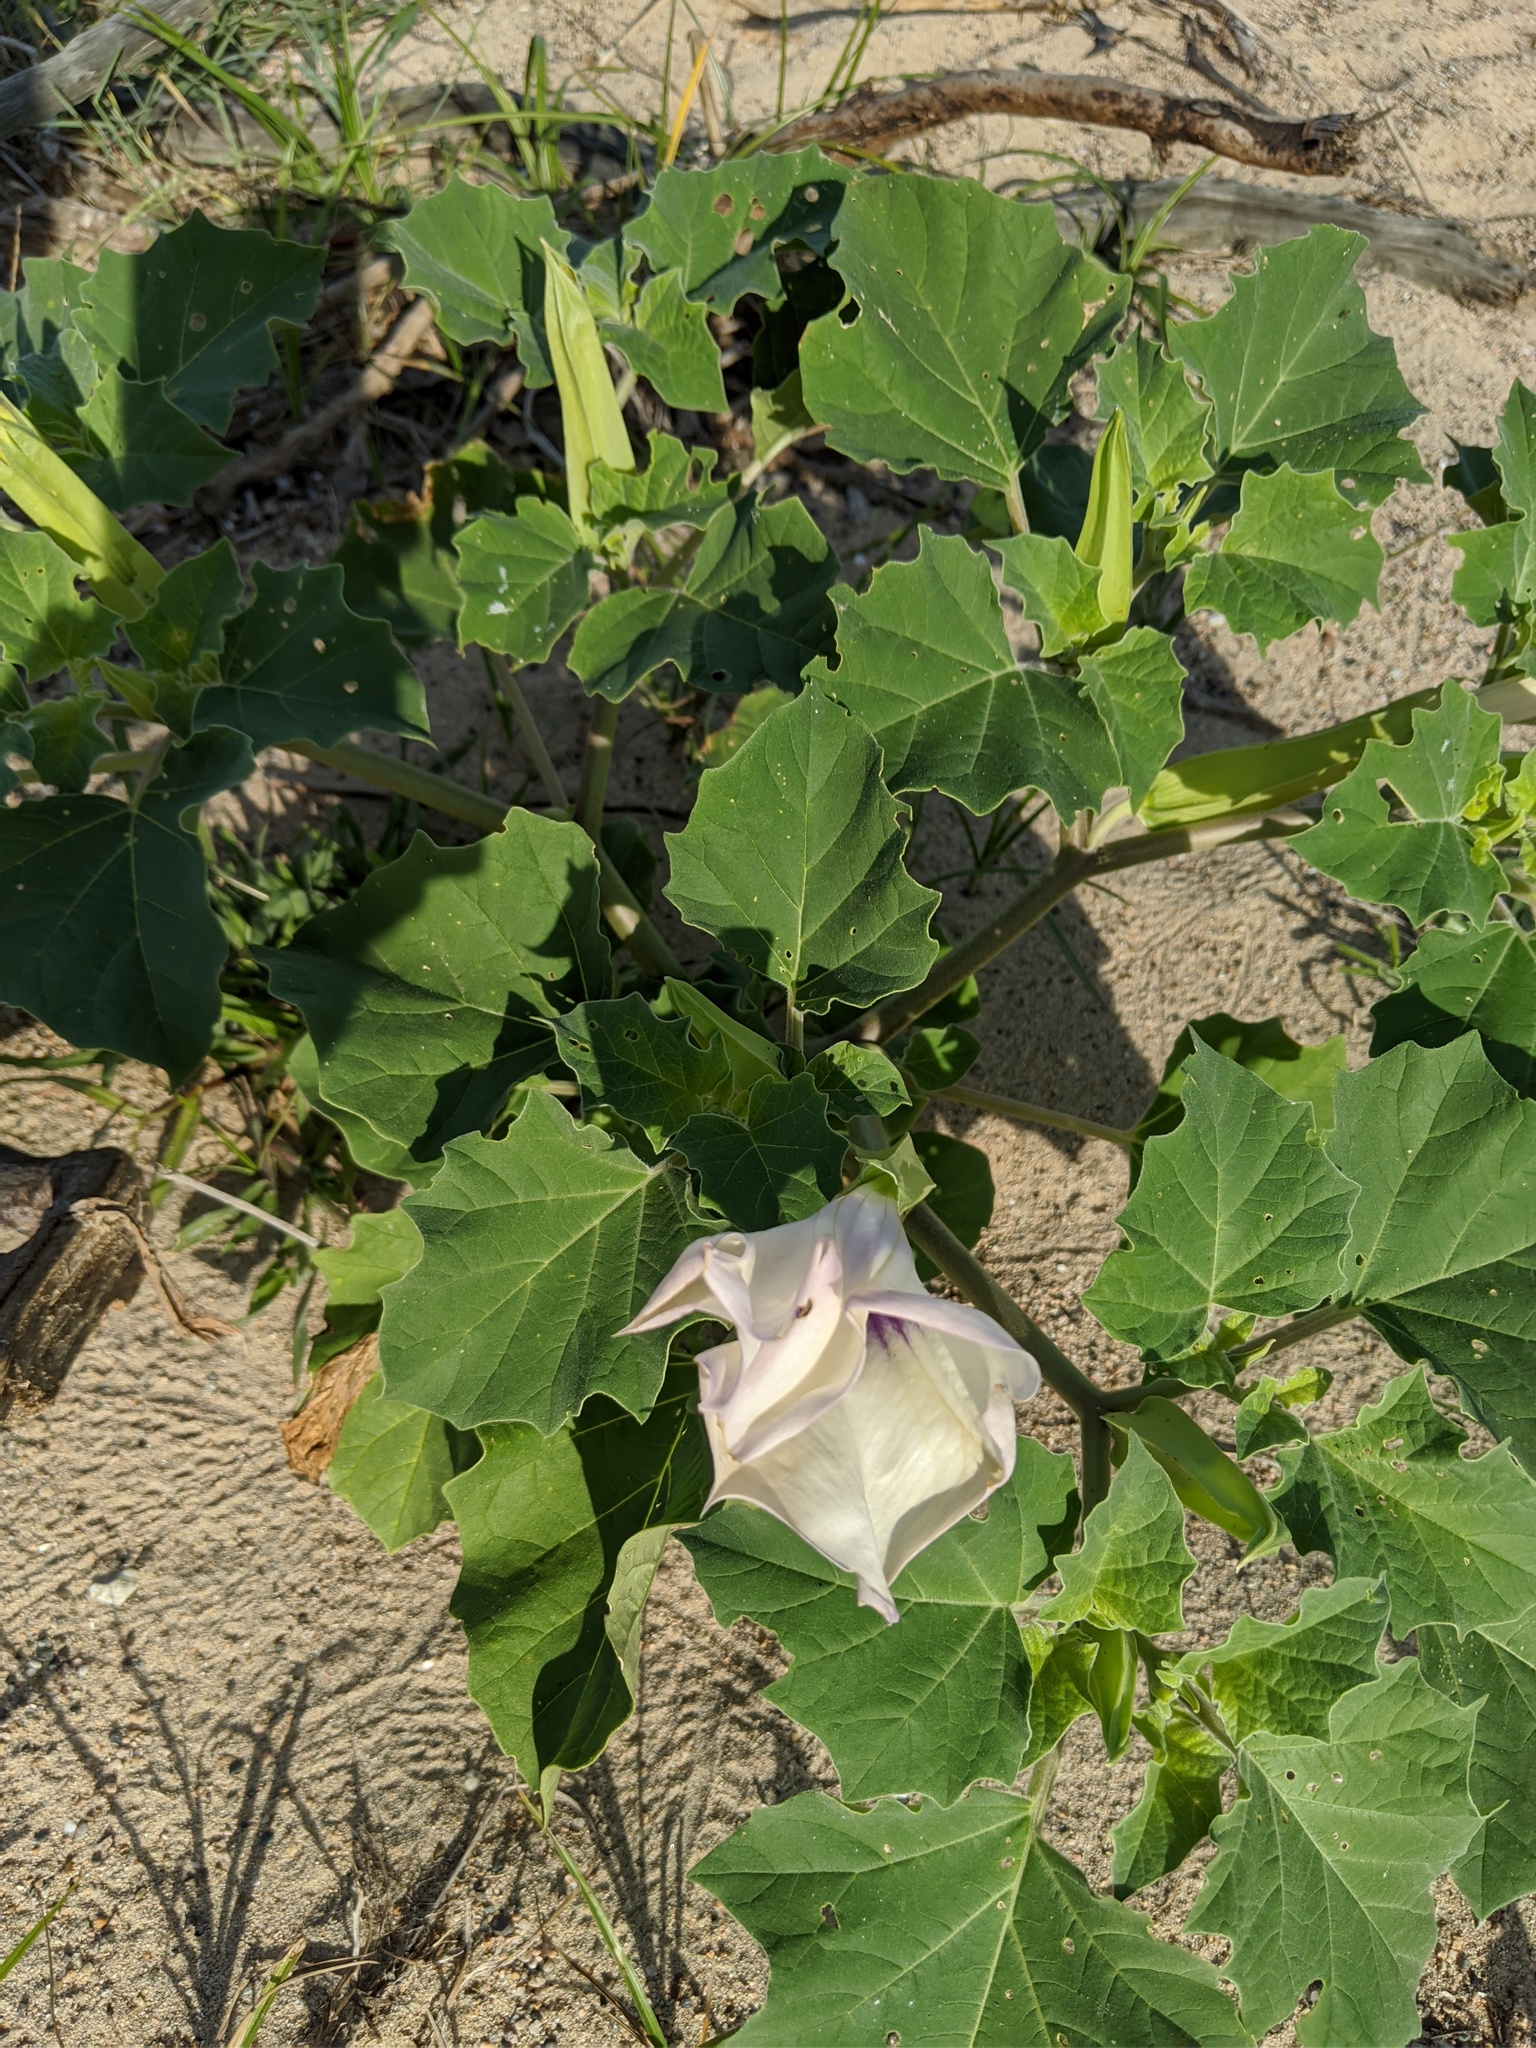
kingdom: Plantae
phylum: Tracheophyta
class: Magnoliopsida
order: Solanales
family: Solanaceae
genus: Datura
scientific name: Datura discolor
